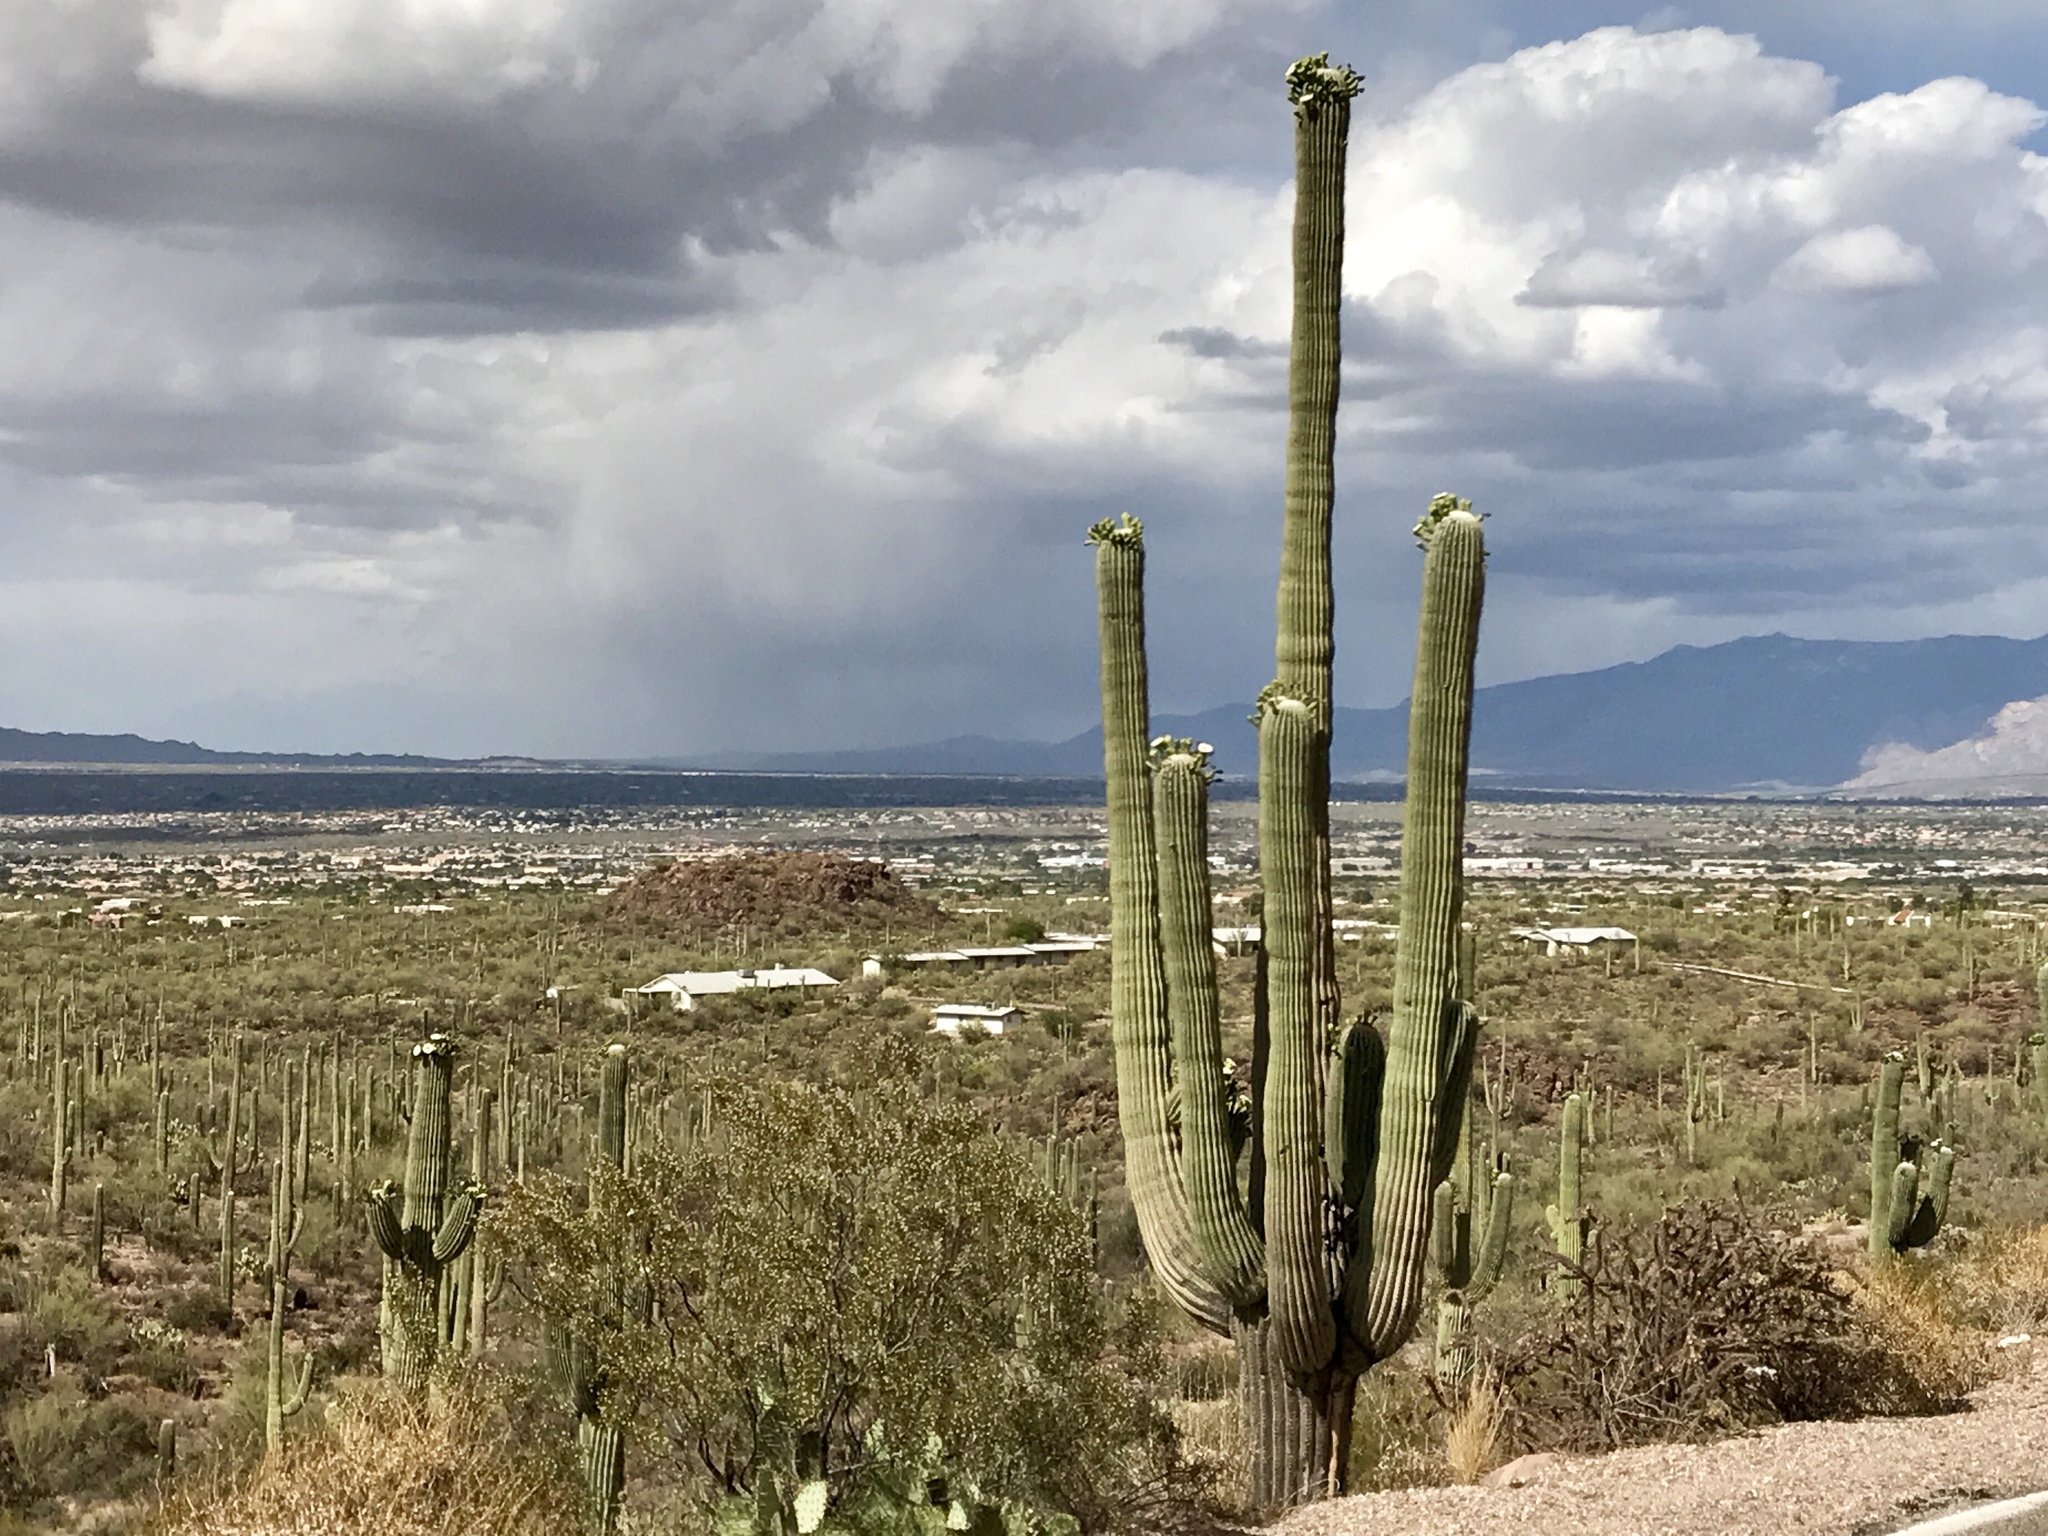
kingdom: Plantae
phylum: Tracheophyta
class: Magnoliopsida
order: Caryophyllales
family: Cactaceae
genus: Carnegiea
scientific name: Carnegiea gigantea
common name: Saguaro
